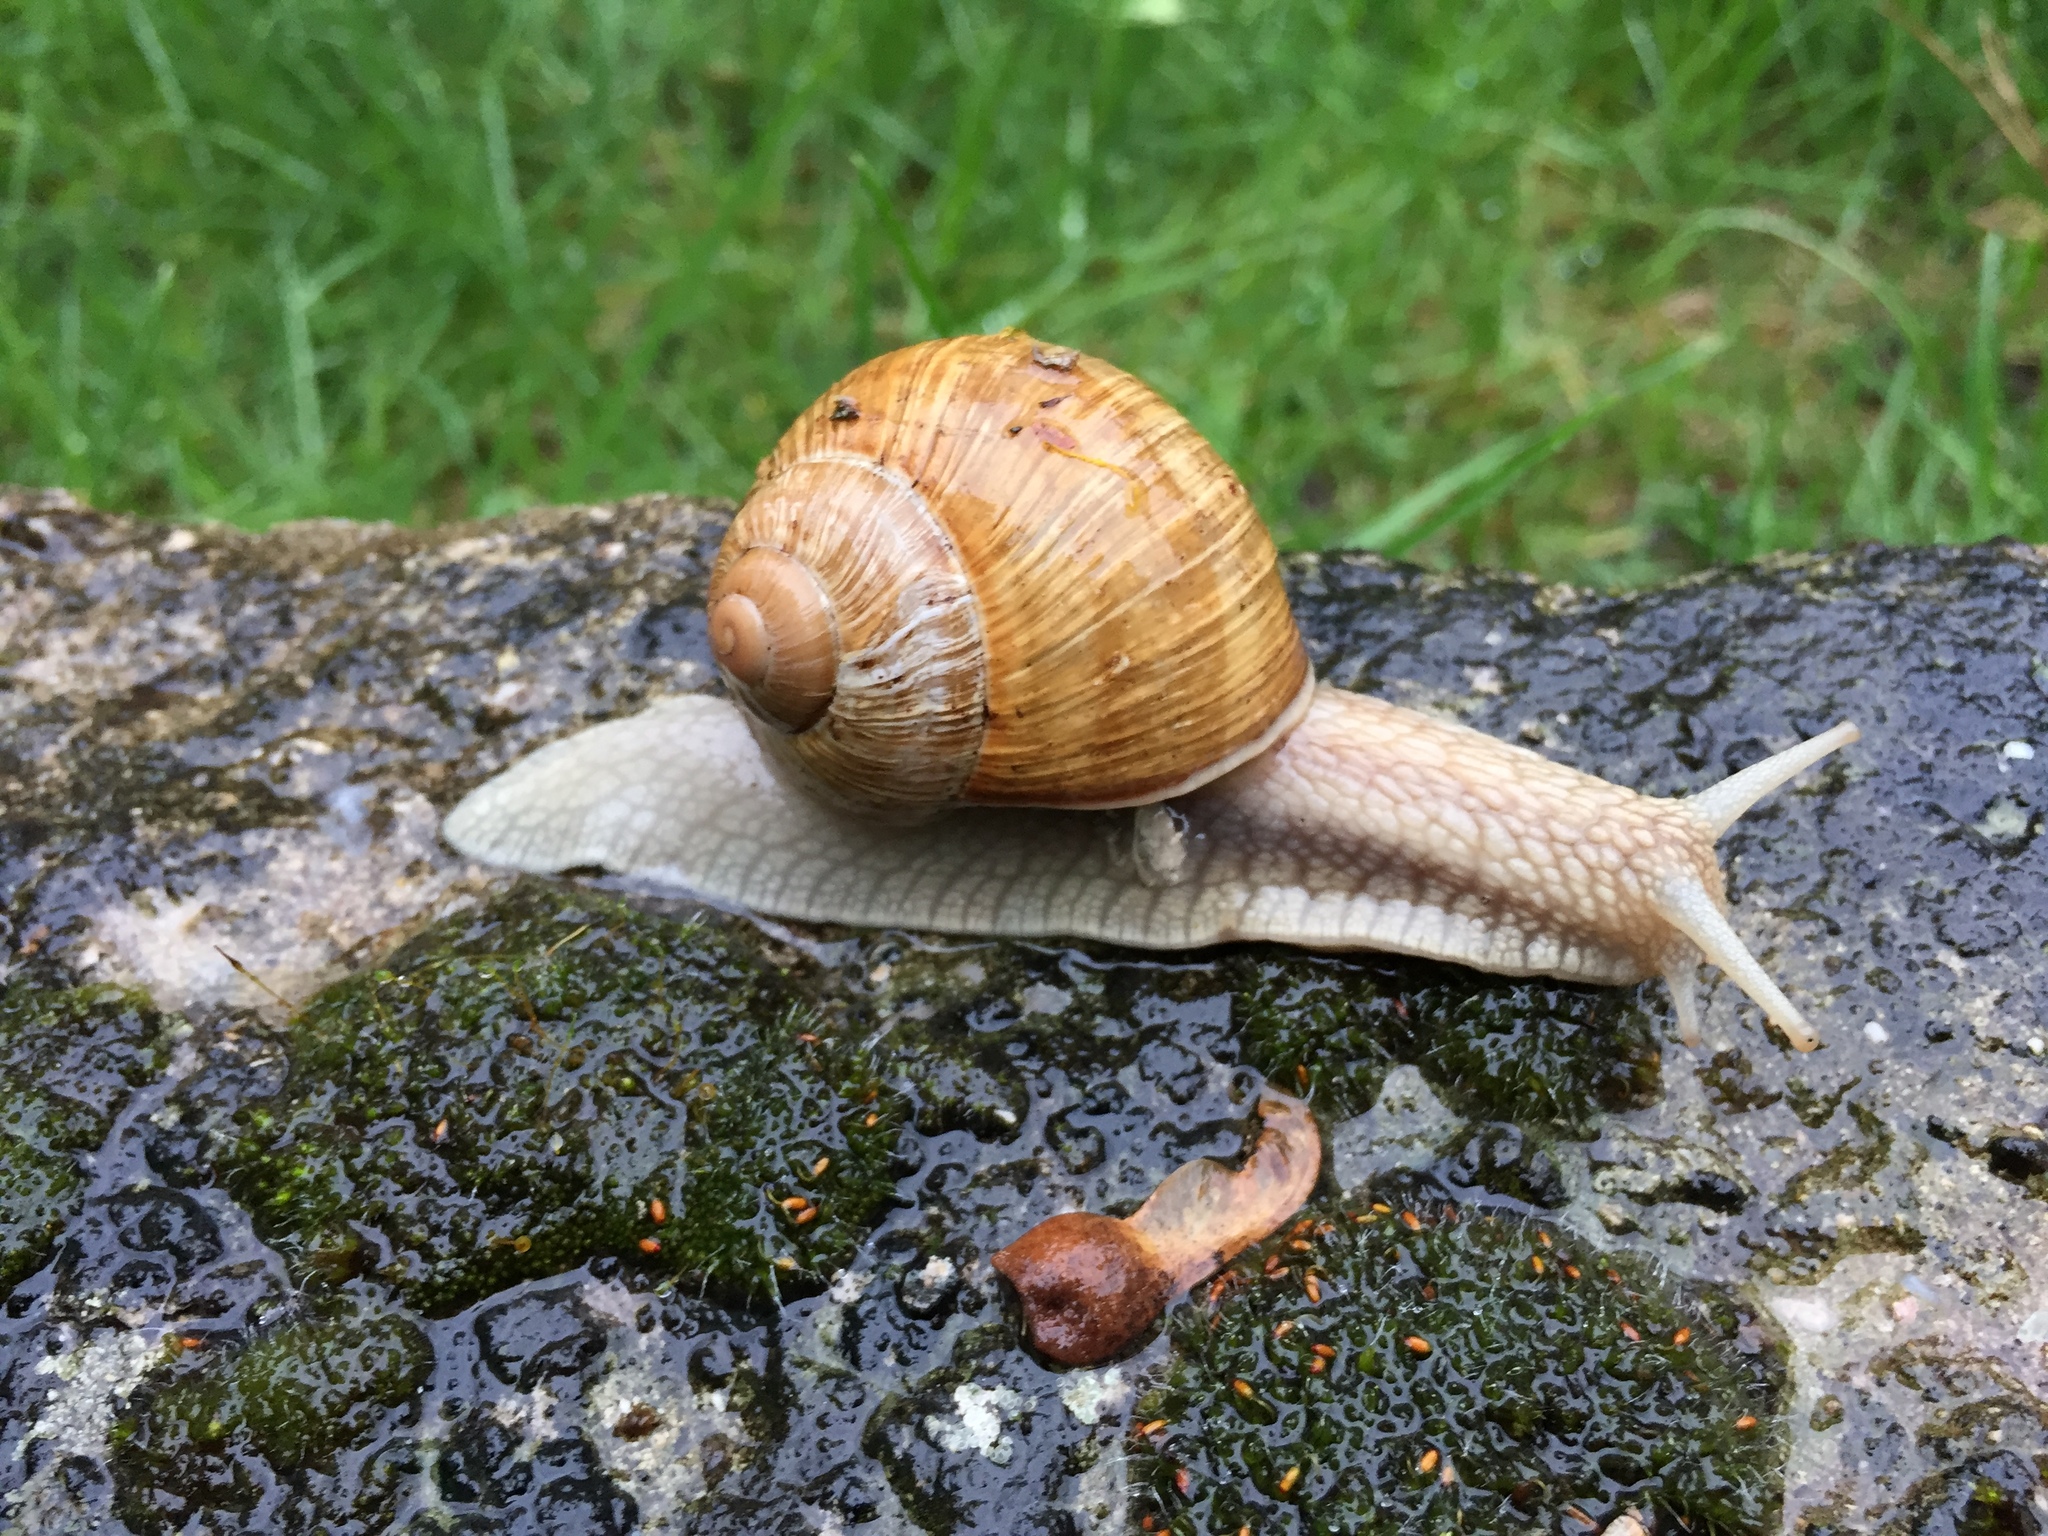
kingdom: Animalia
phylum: Mollusca
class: Gastropoda
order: Stylommatophora
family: Helicidae
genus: Helix
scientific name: Helix pomatia
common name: Roman snail
